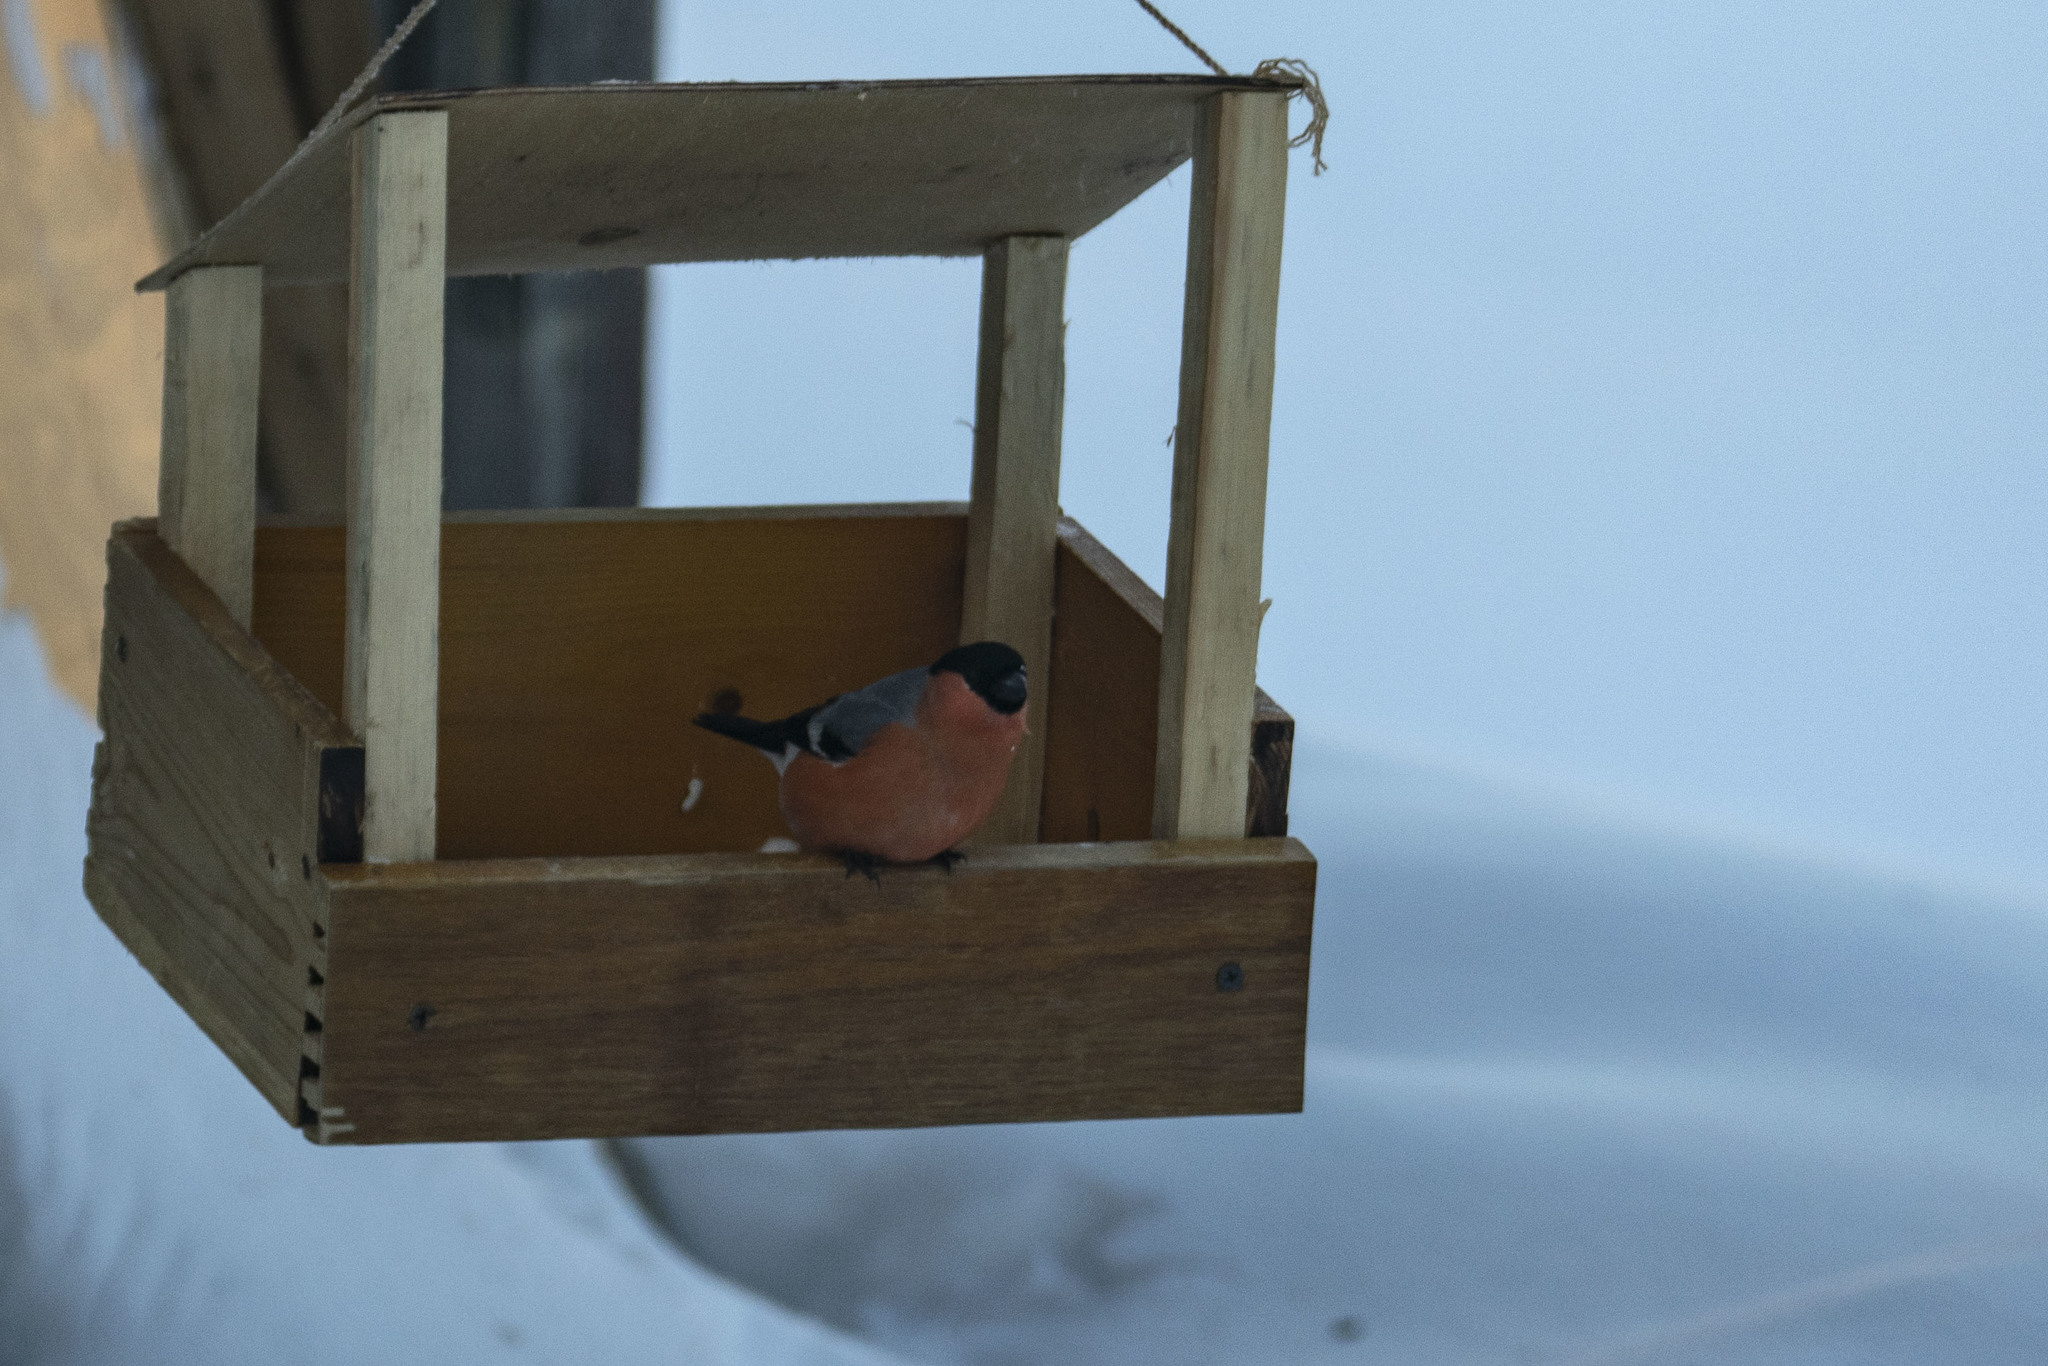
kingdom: Animalia
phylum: Chordata
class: Aves
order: Passeriformes
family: Fringillidae
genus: Pyrrhula
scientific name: Pyrrhula pyrrhula
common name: Eurasian bullfinch
